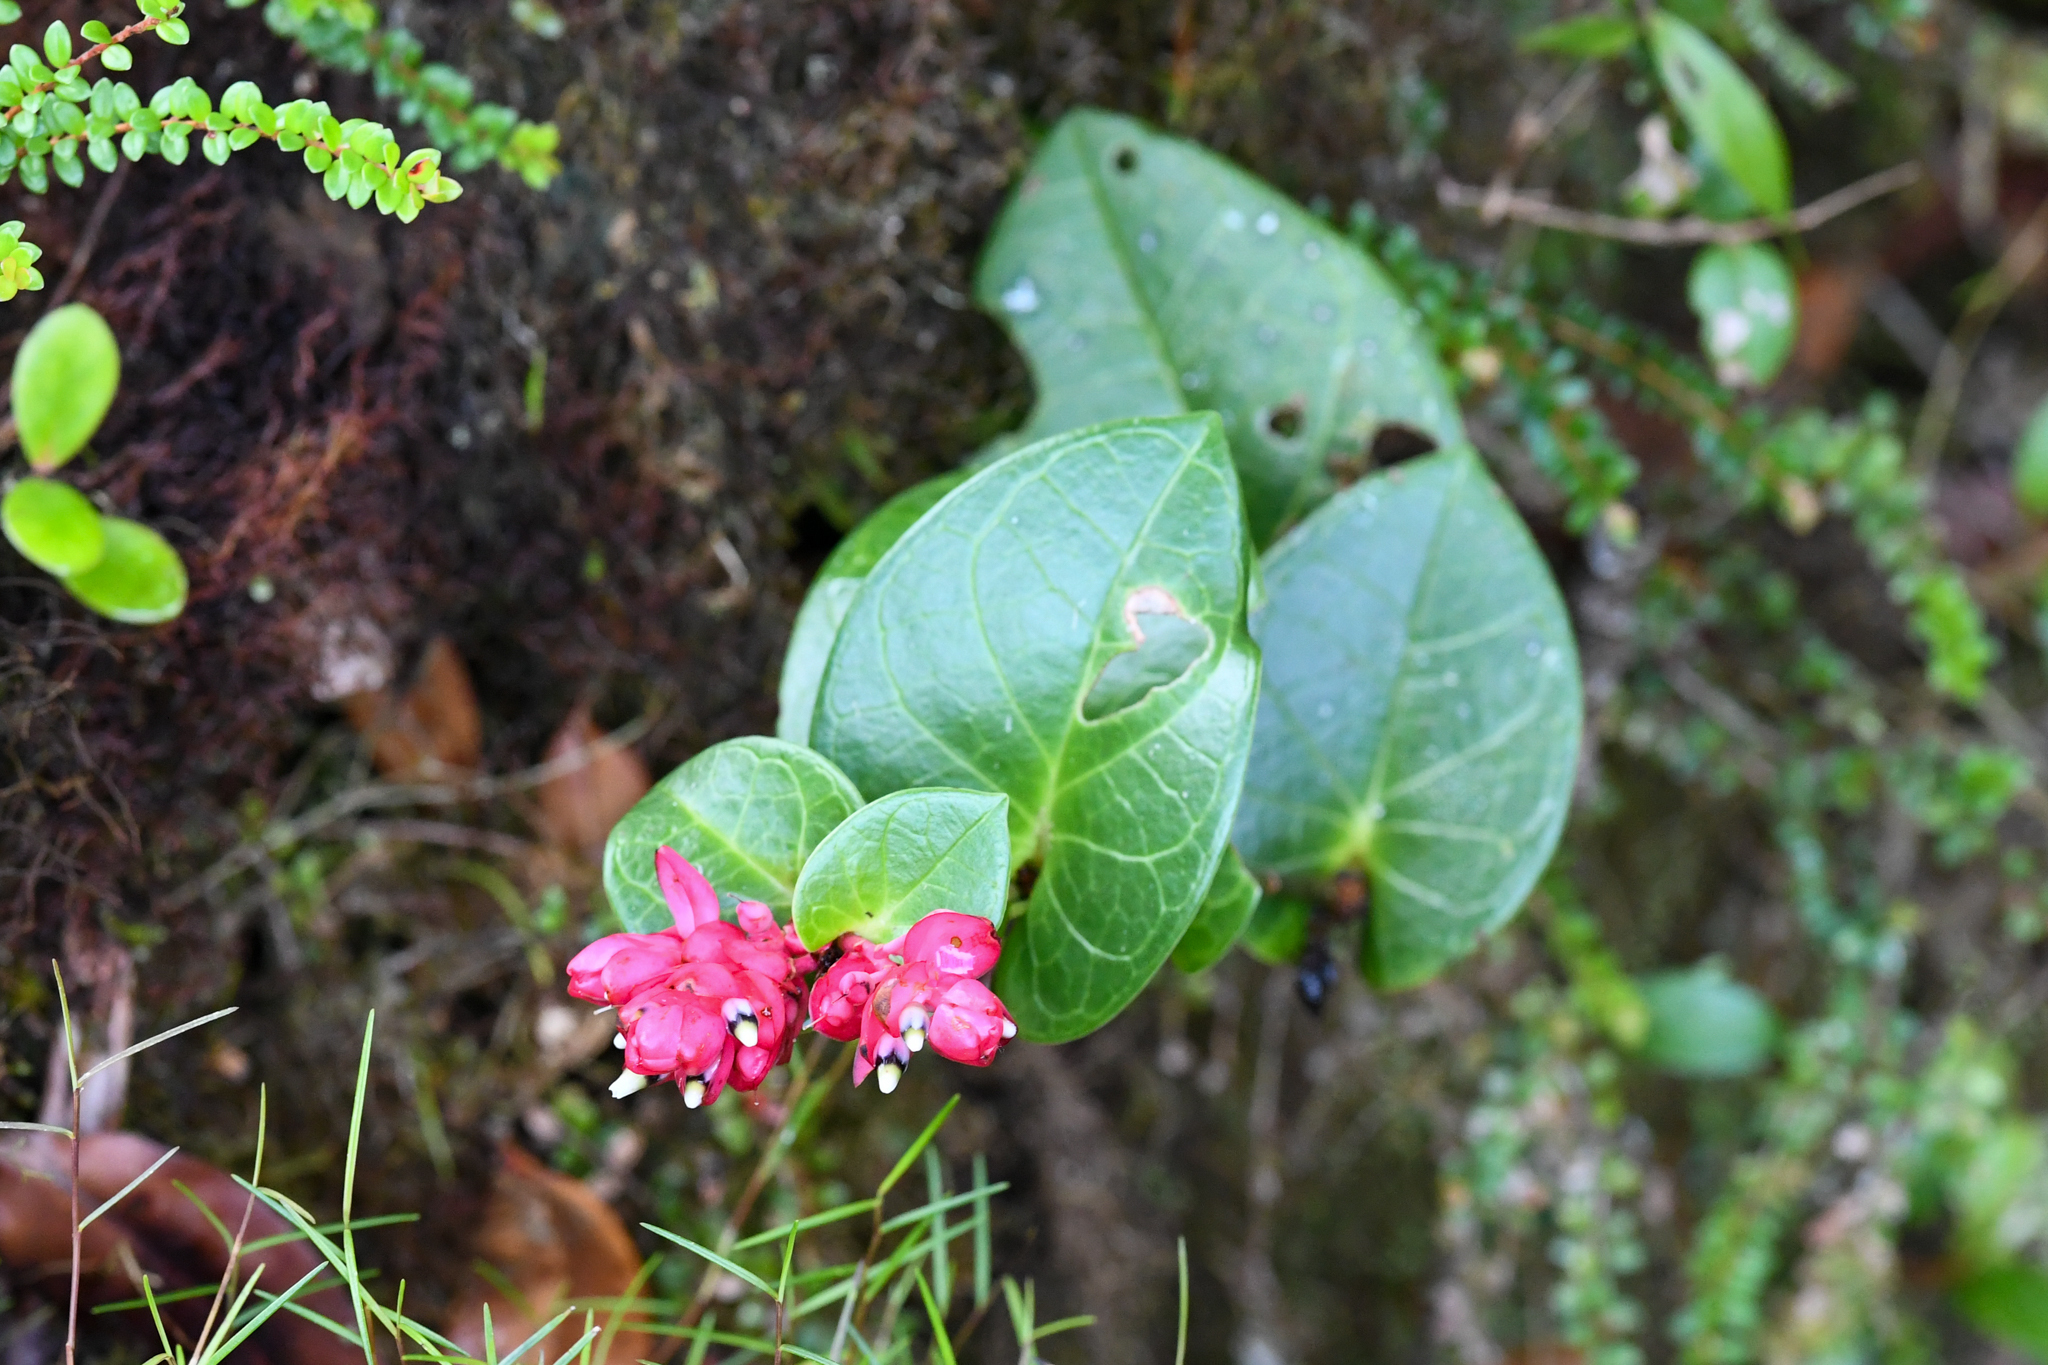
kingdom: Plantae
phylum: Tracheophyta
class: Magnoliopsida
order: Ericales
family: Ericaceae
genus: Cavendishia
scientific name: Cavendishia complectens
